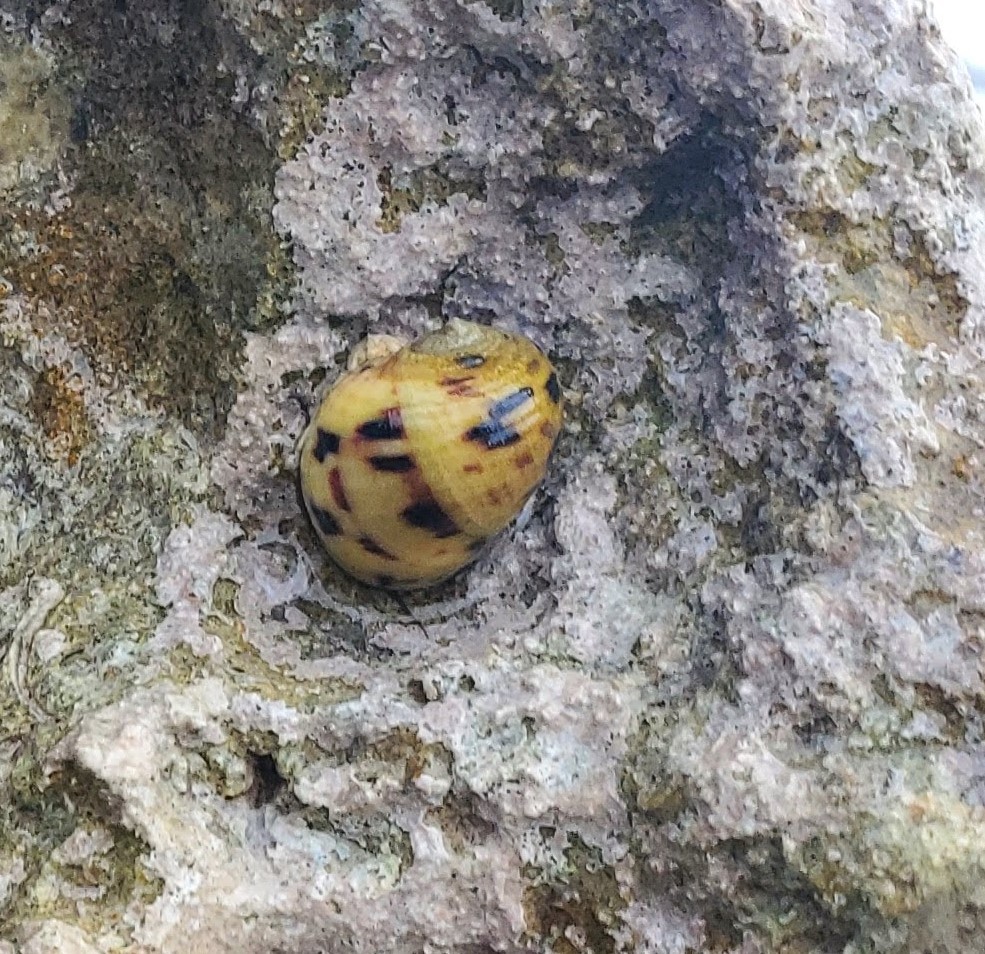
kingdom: Animalia
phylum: Mollusca
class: Gastropoda
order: Cycloneritida
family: Neritidae
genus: Nerita
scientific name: Nerita peloronta
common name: Bleeding tooth
